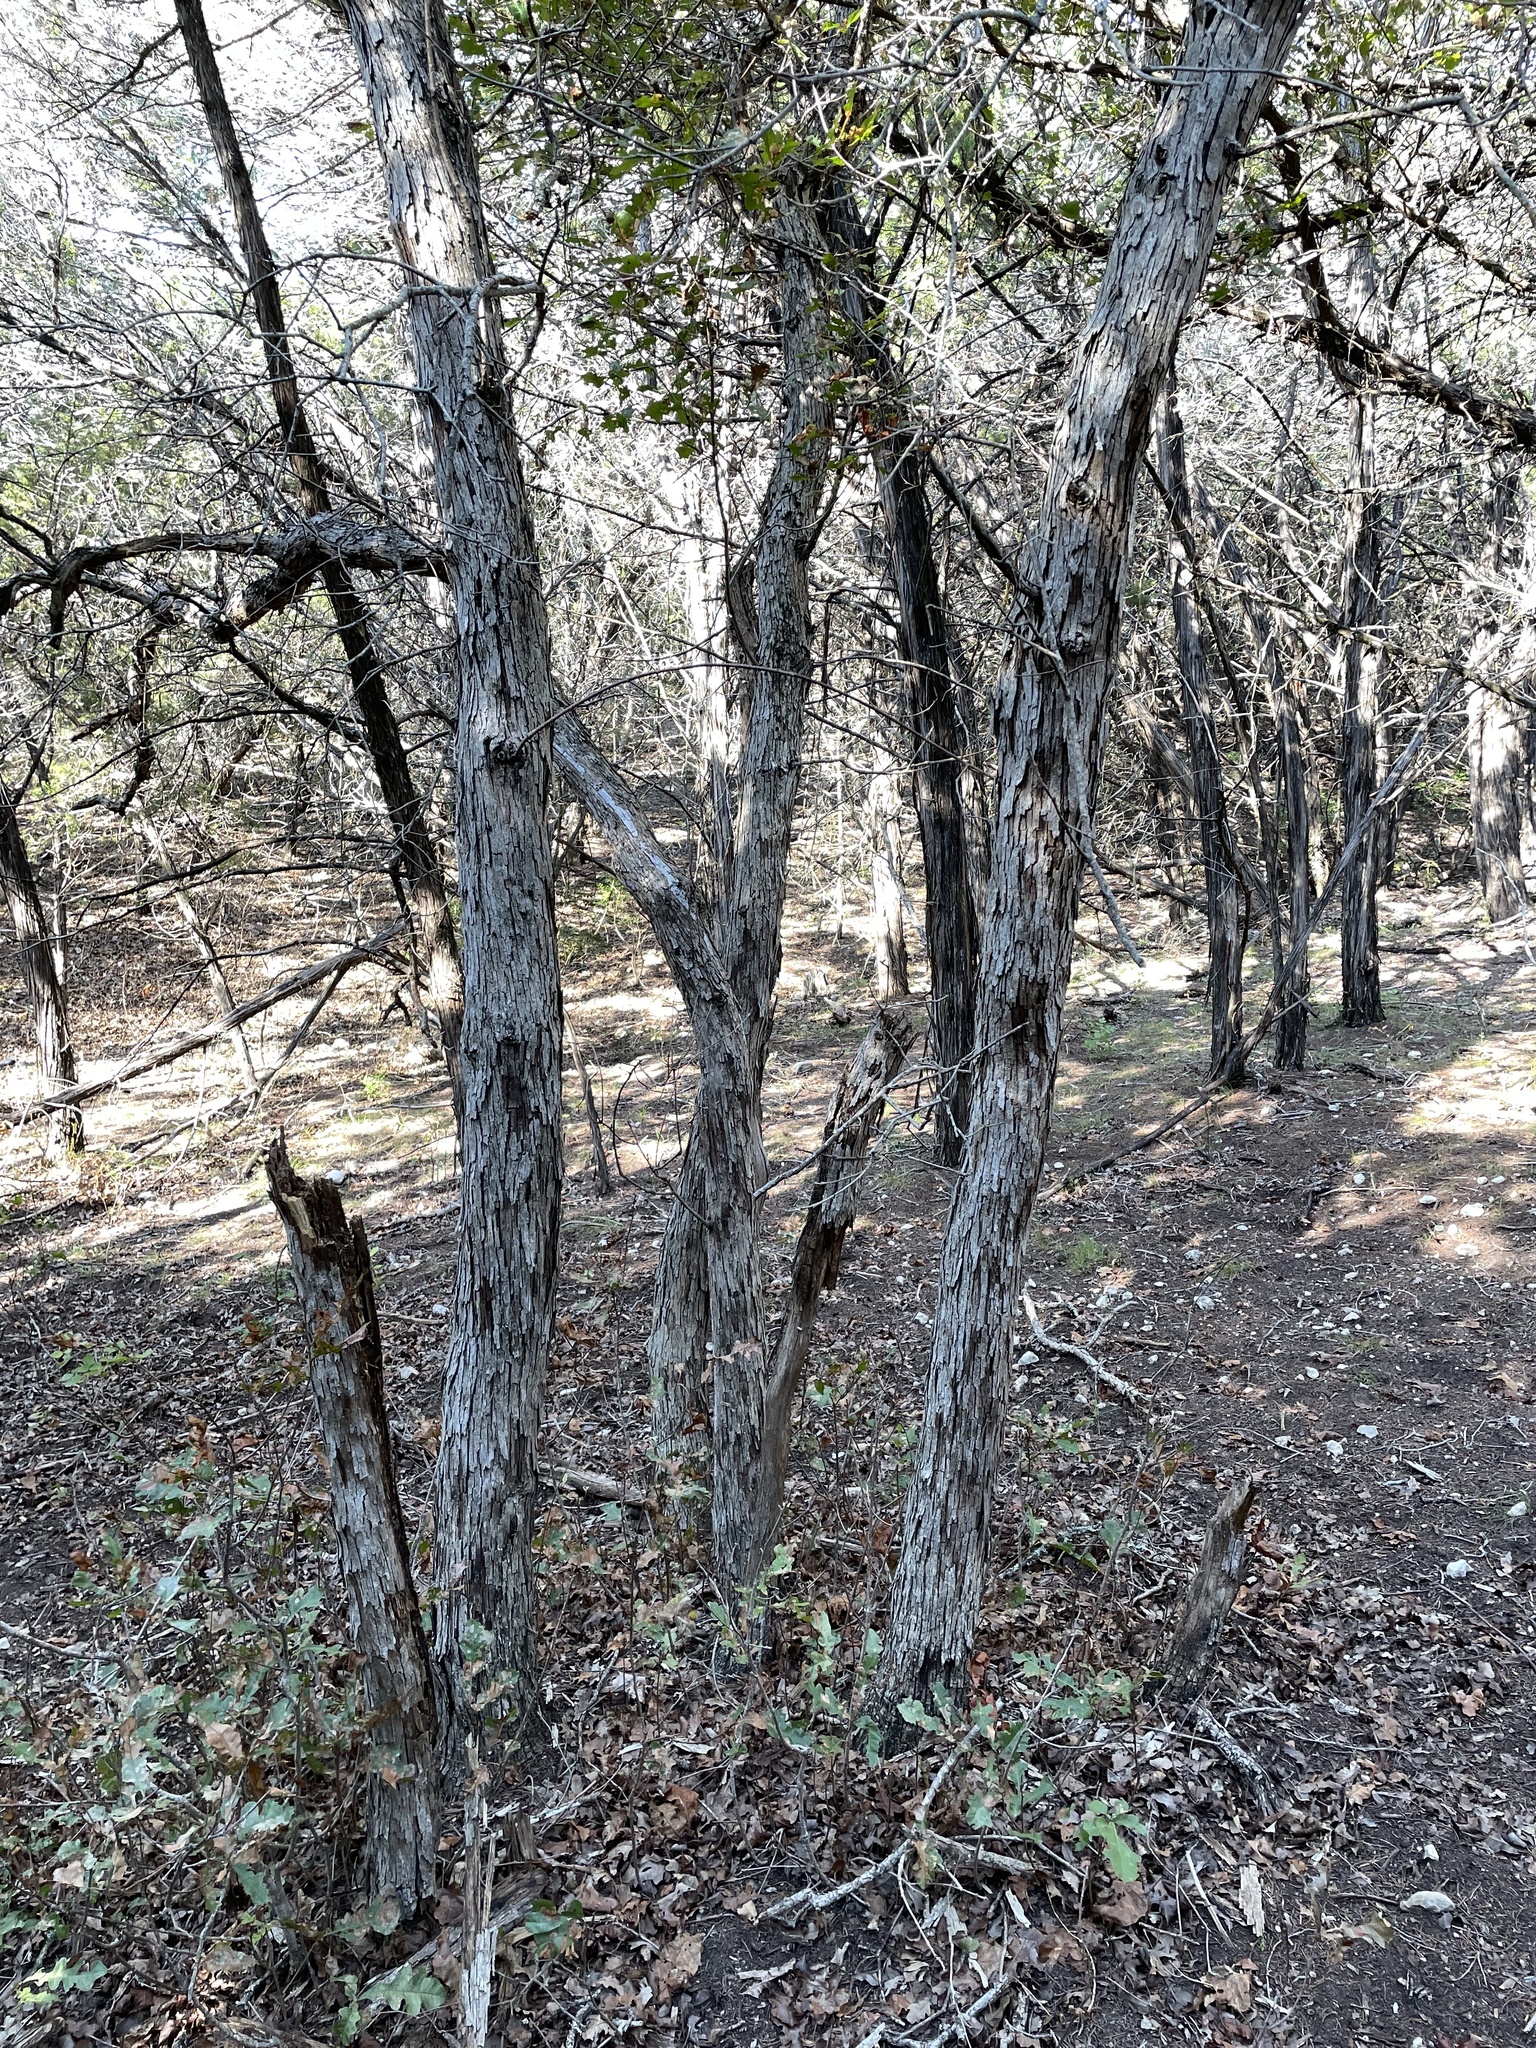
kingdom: Plantae
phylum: Tracheophyta
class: Magnoliopsida
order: Fagales
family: Fagaceae
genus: Quercus
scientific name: Quercus sinuata
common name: Durand oak
